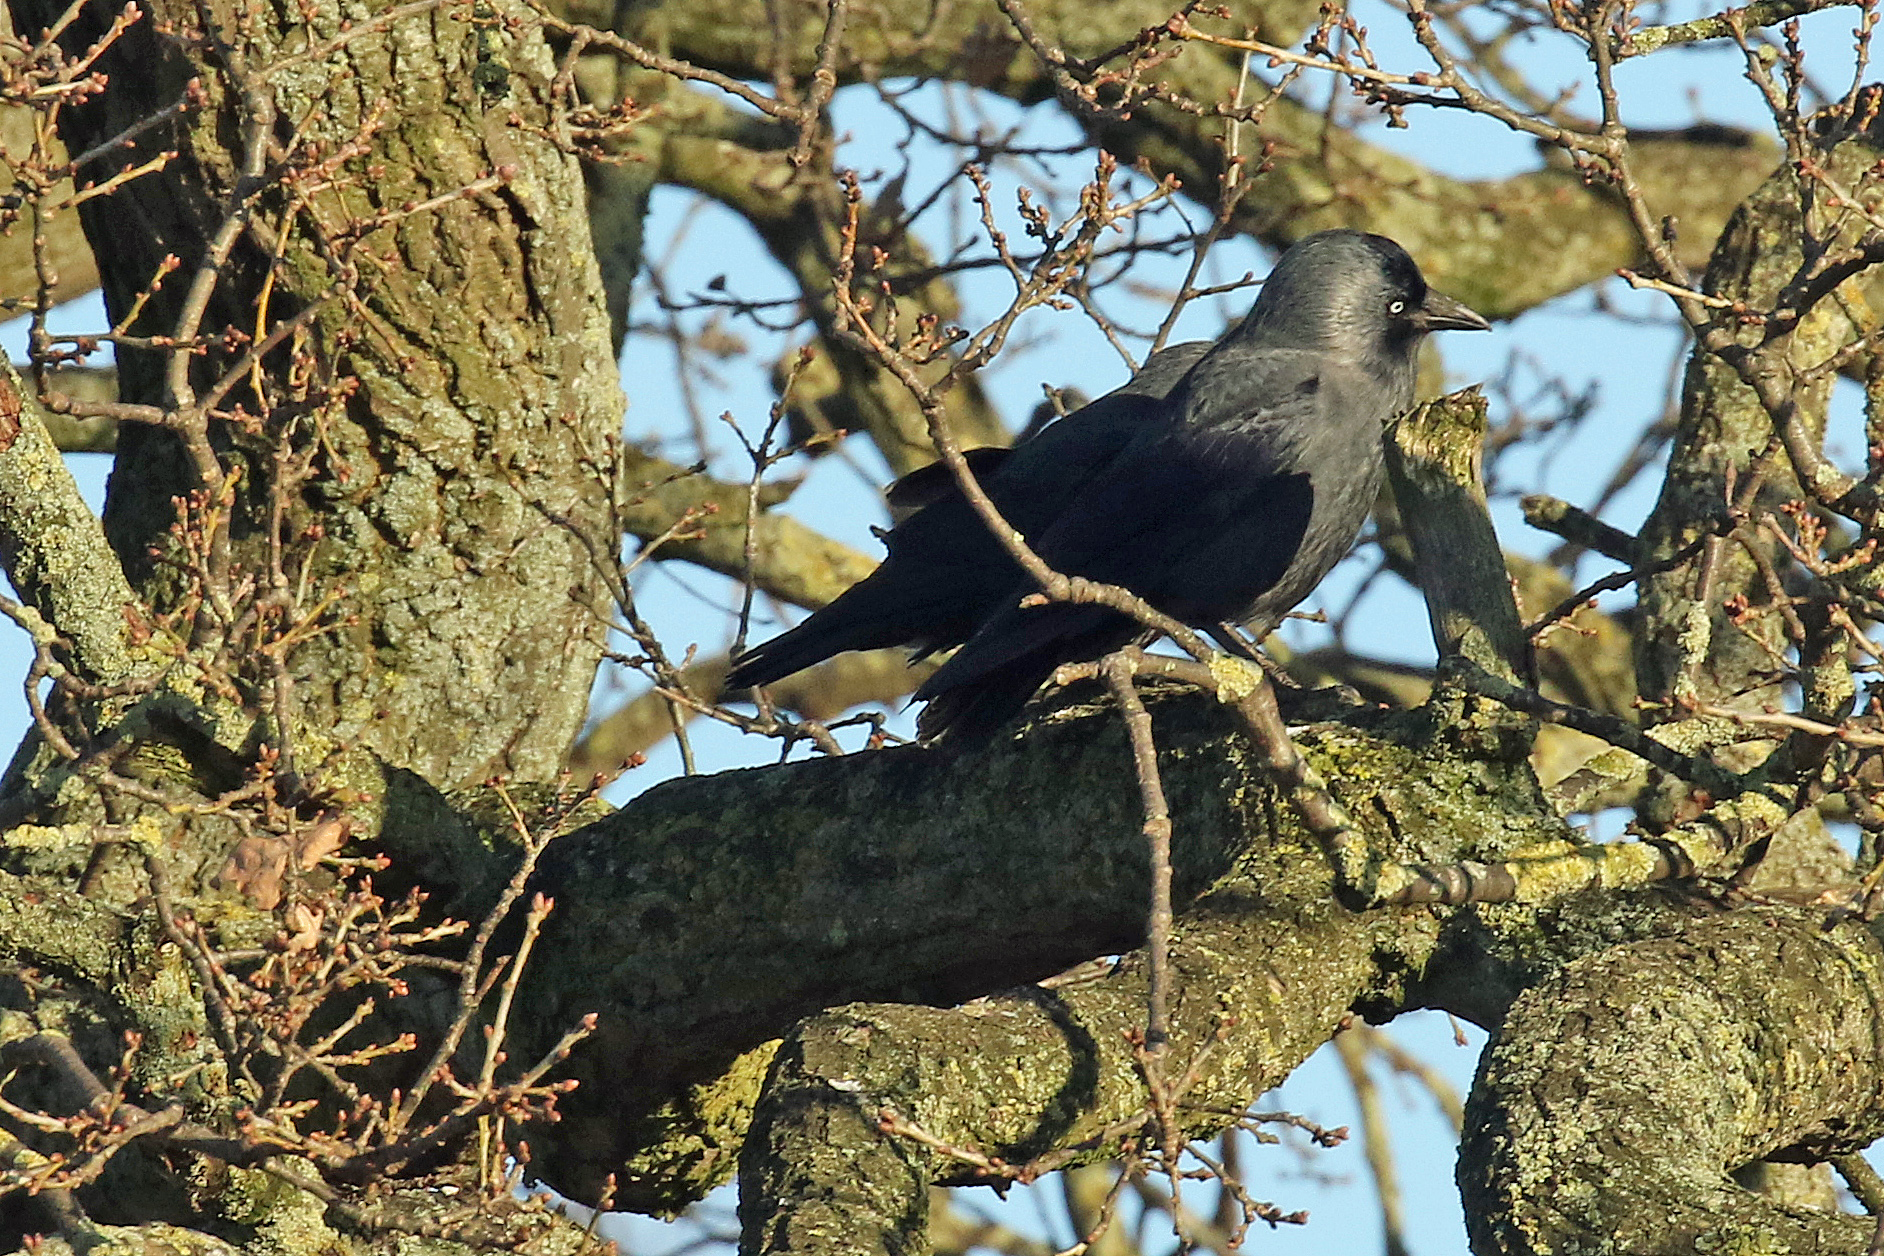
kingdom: Animalia
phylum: Chordata
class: Aves
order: Passeriformes
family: Corvidae
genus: Coloeus
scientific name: Coloeus monedula
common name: Western jackdaw
